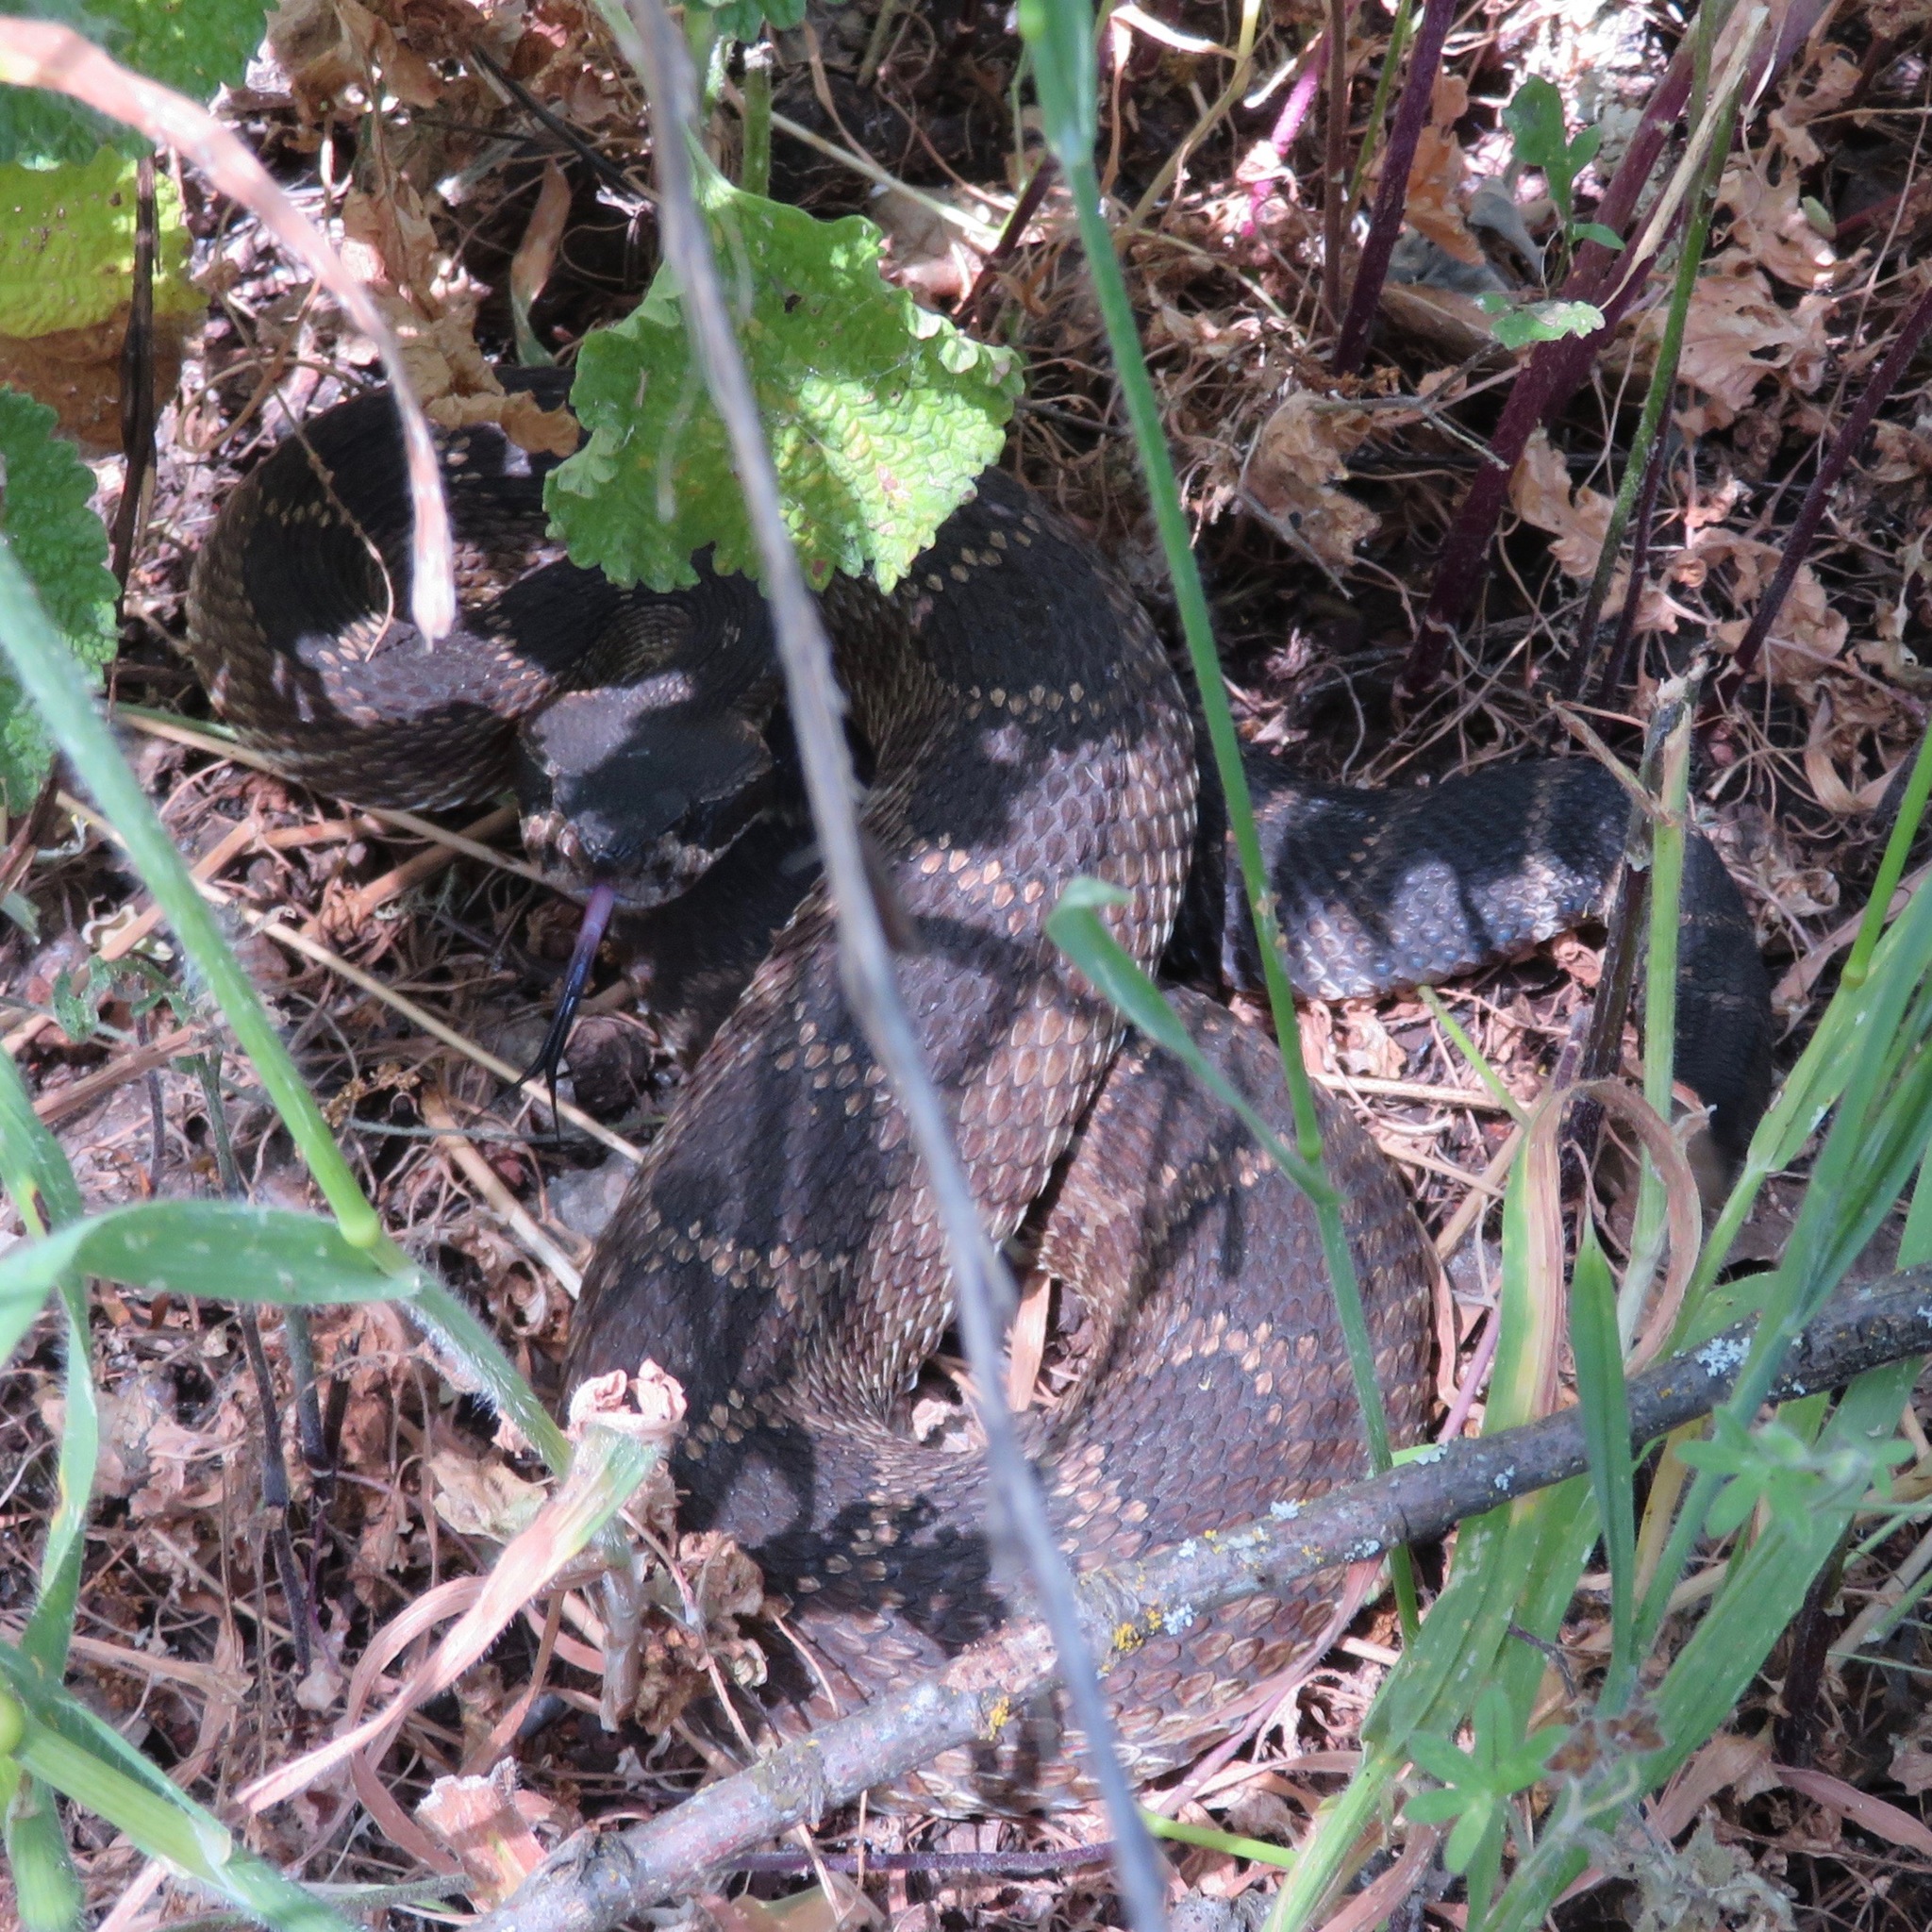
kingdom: Animalia
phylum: Chordata
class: Squamata
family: Viperidae
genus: Crotalus
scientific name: Crotalus oreganus
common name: Abyssus
